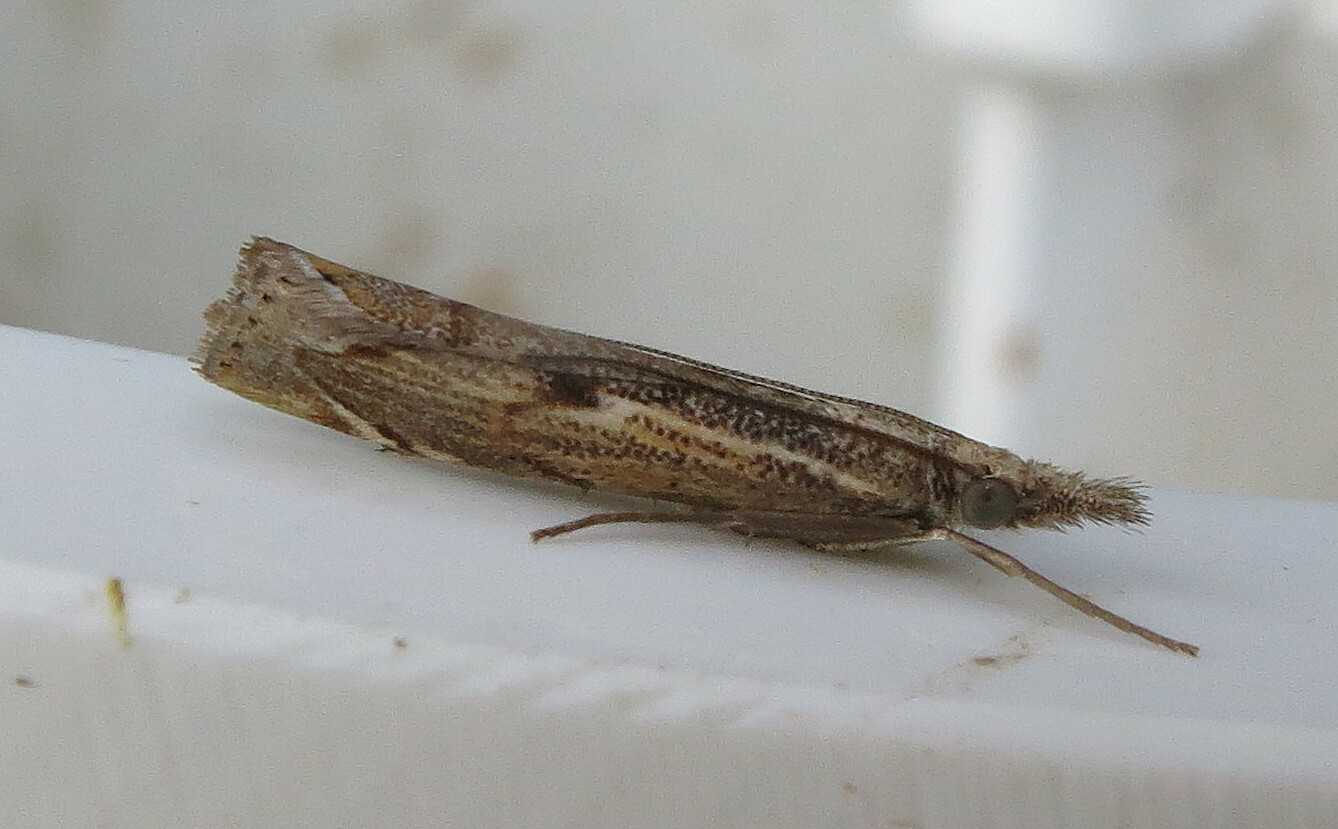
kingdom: Animalia
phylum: Arthropoda
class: Insecta
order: Lepidoptera
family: Crambidae
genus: Agriphila
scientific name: Agriphila geniculea
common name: Elbow-stripe grass-veneer
